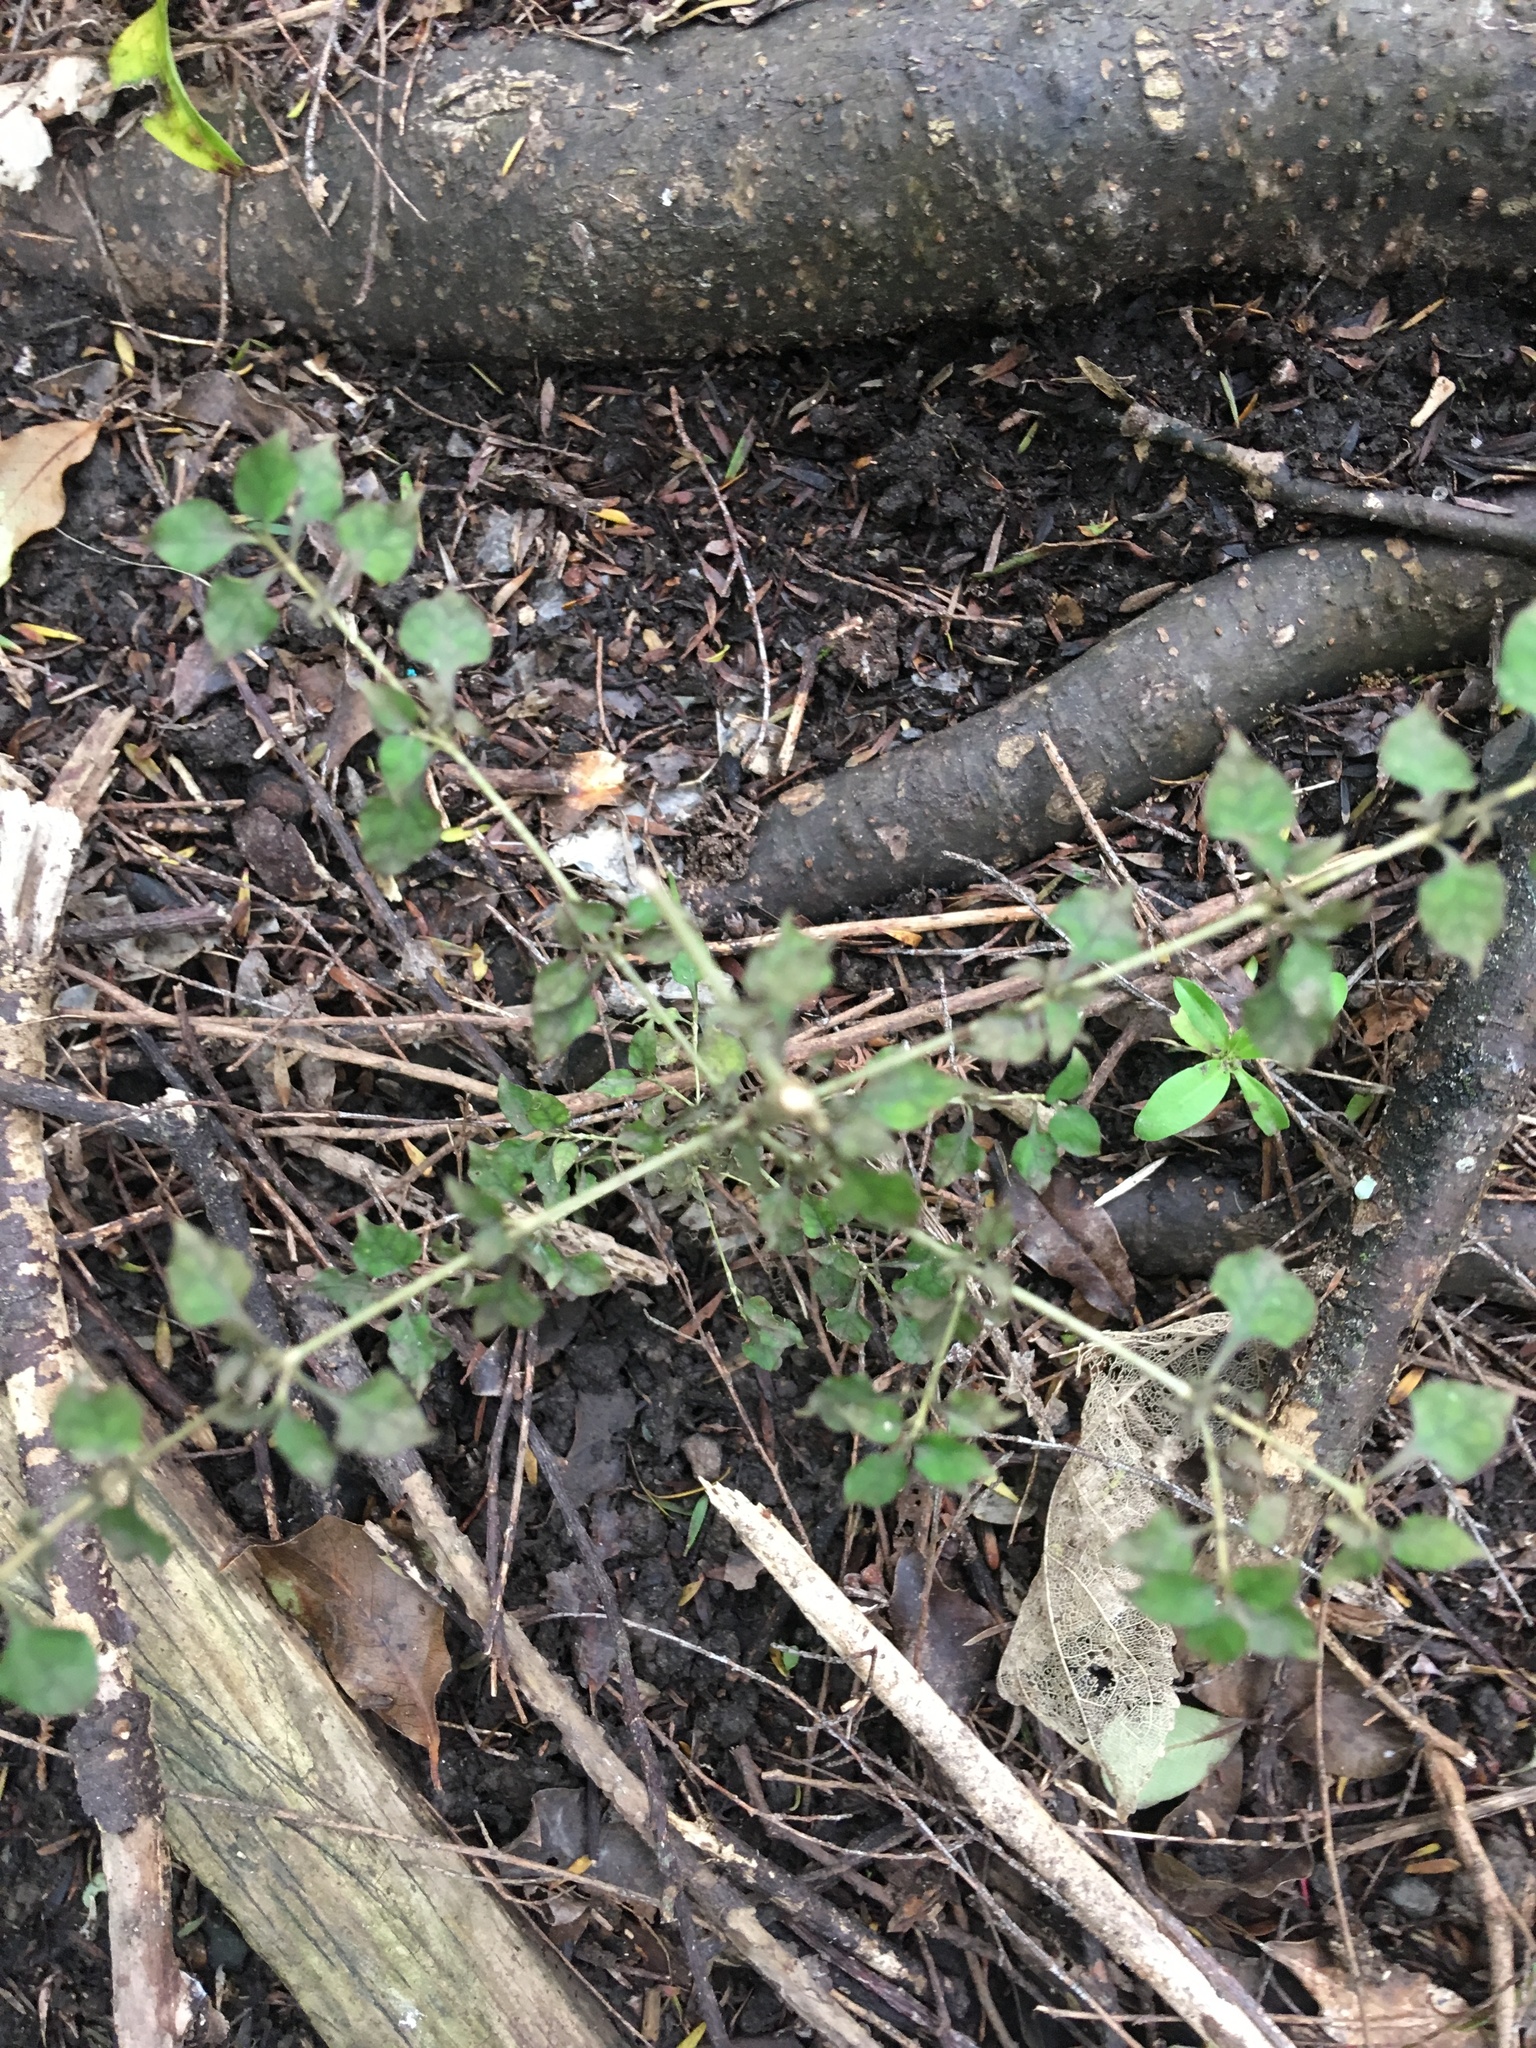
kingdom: Plantae
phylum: Tracheophyta
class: Magnoliopsida
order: Gentianales
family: Rubiaceae
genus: Coprosma
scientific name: Coprosma areolata
